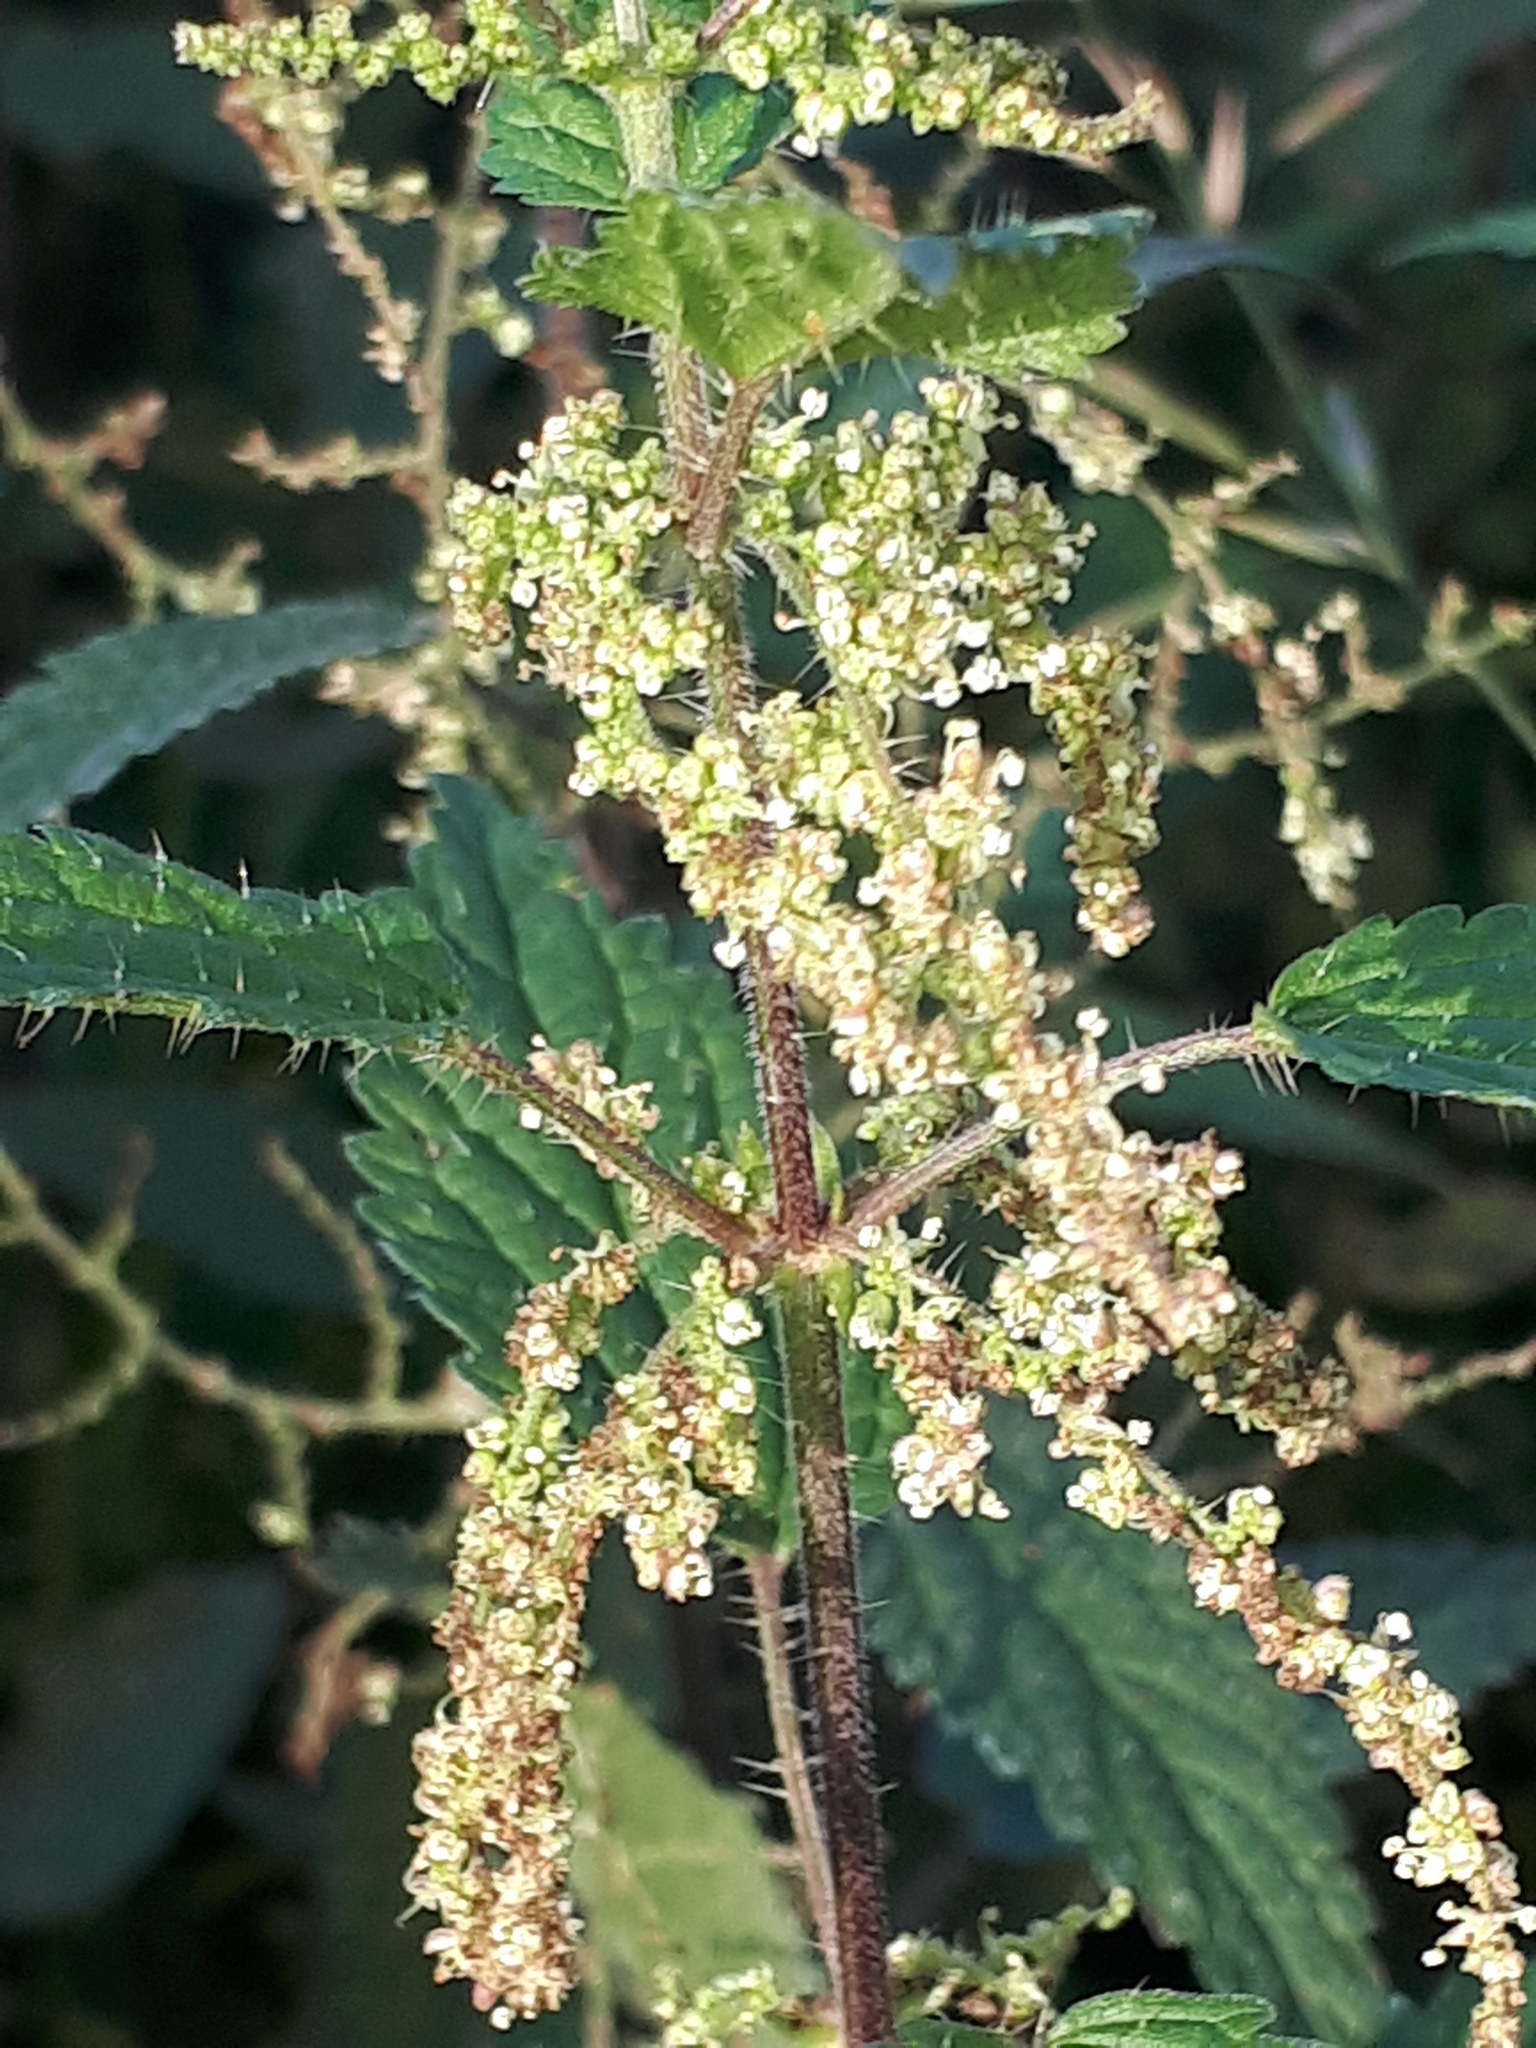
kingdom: Plantae
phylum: Tracheophyta
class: Magnoliopsida
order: Rosales
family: Urticaceae
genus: Urtica
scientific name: Urtica dioica
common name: Common nettle
